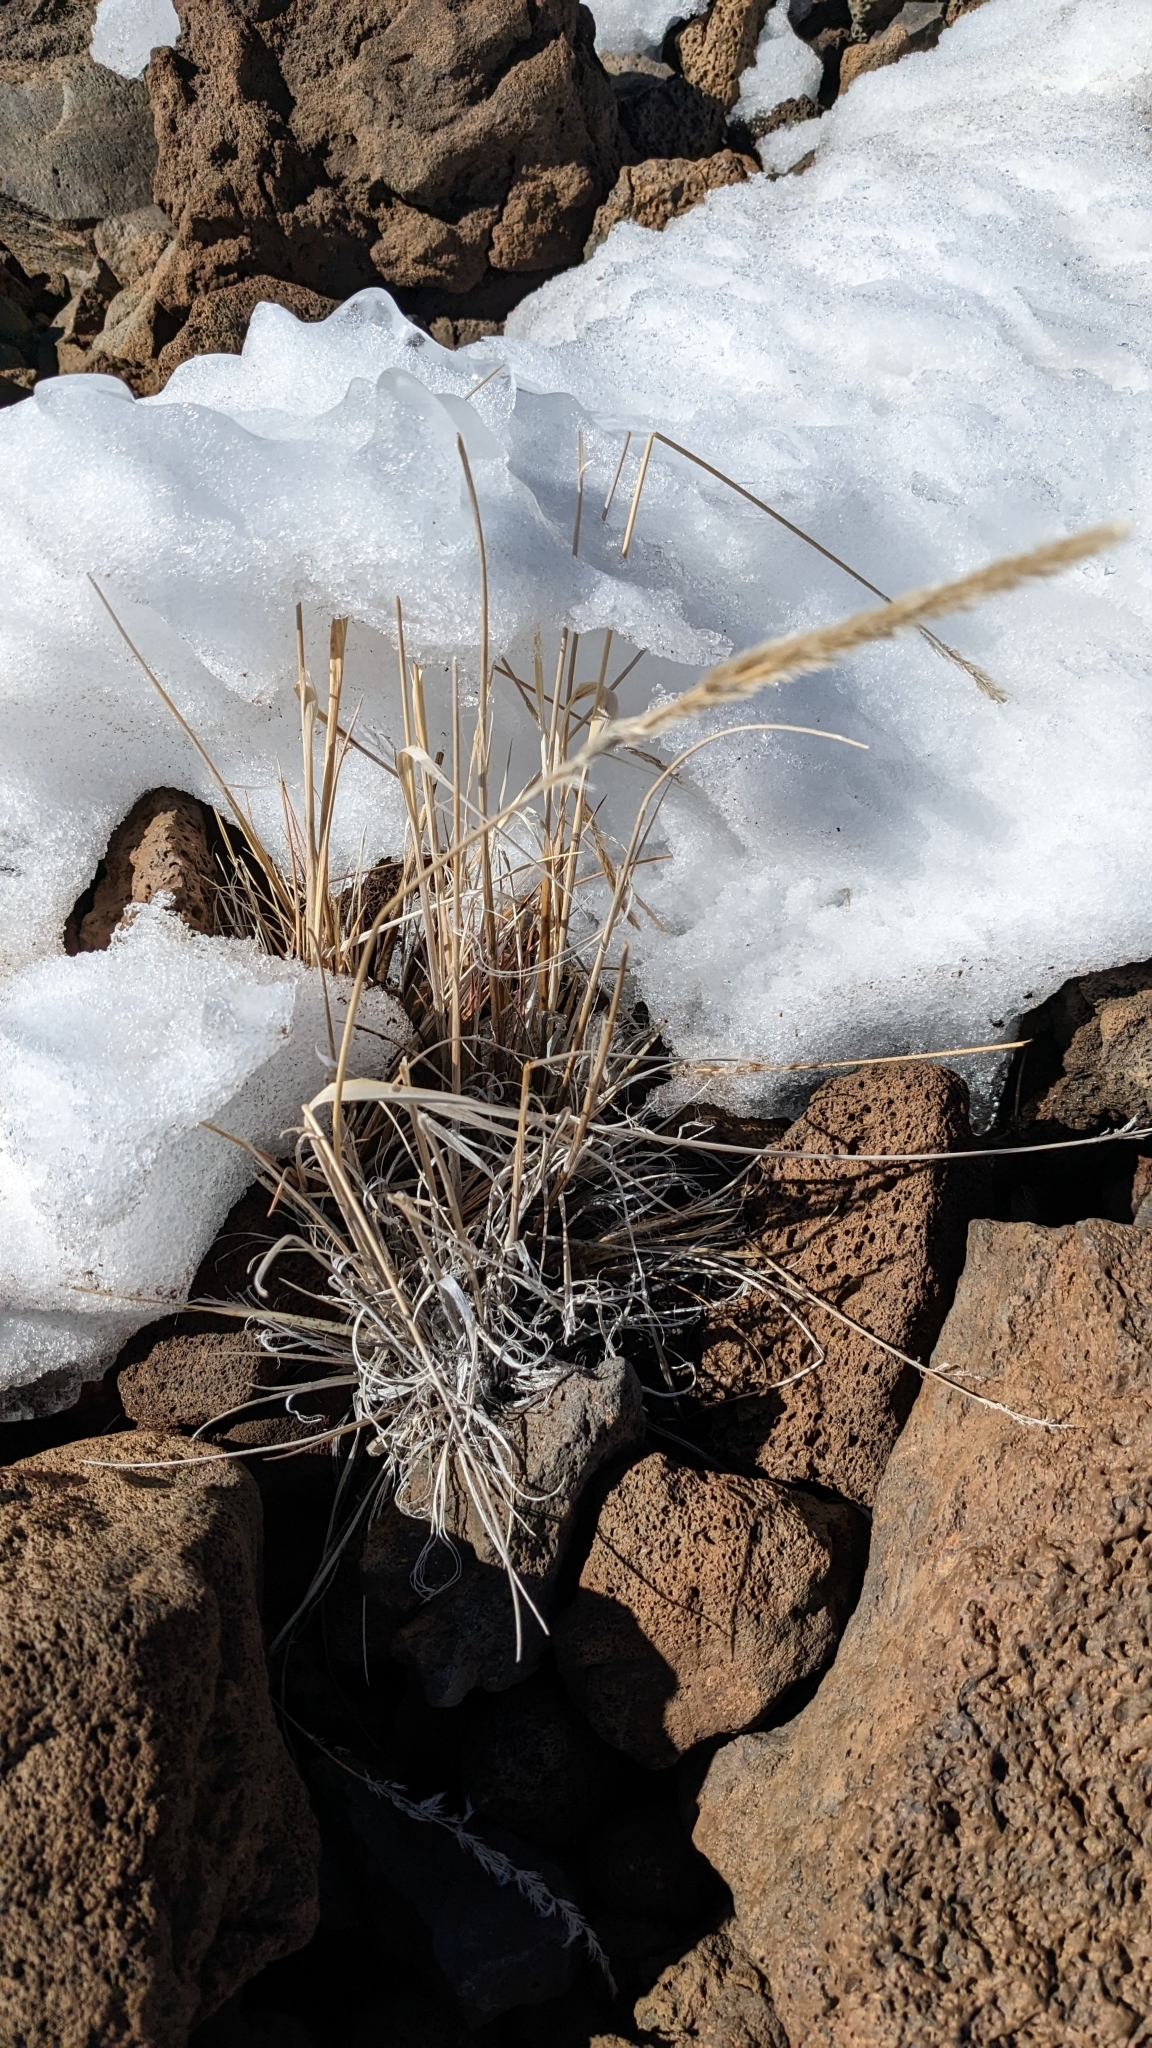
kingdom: Plantae
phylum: Tracheophyta
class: Liliopsida
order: Poales
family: Poaceae
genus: Trisetum
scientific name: Trisetum glomeratum
